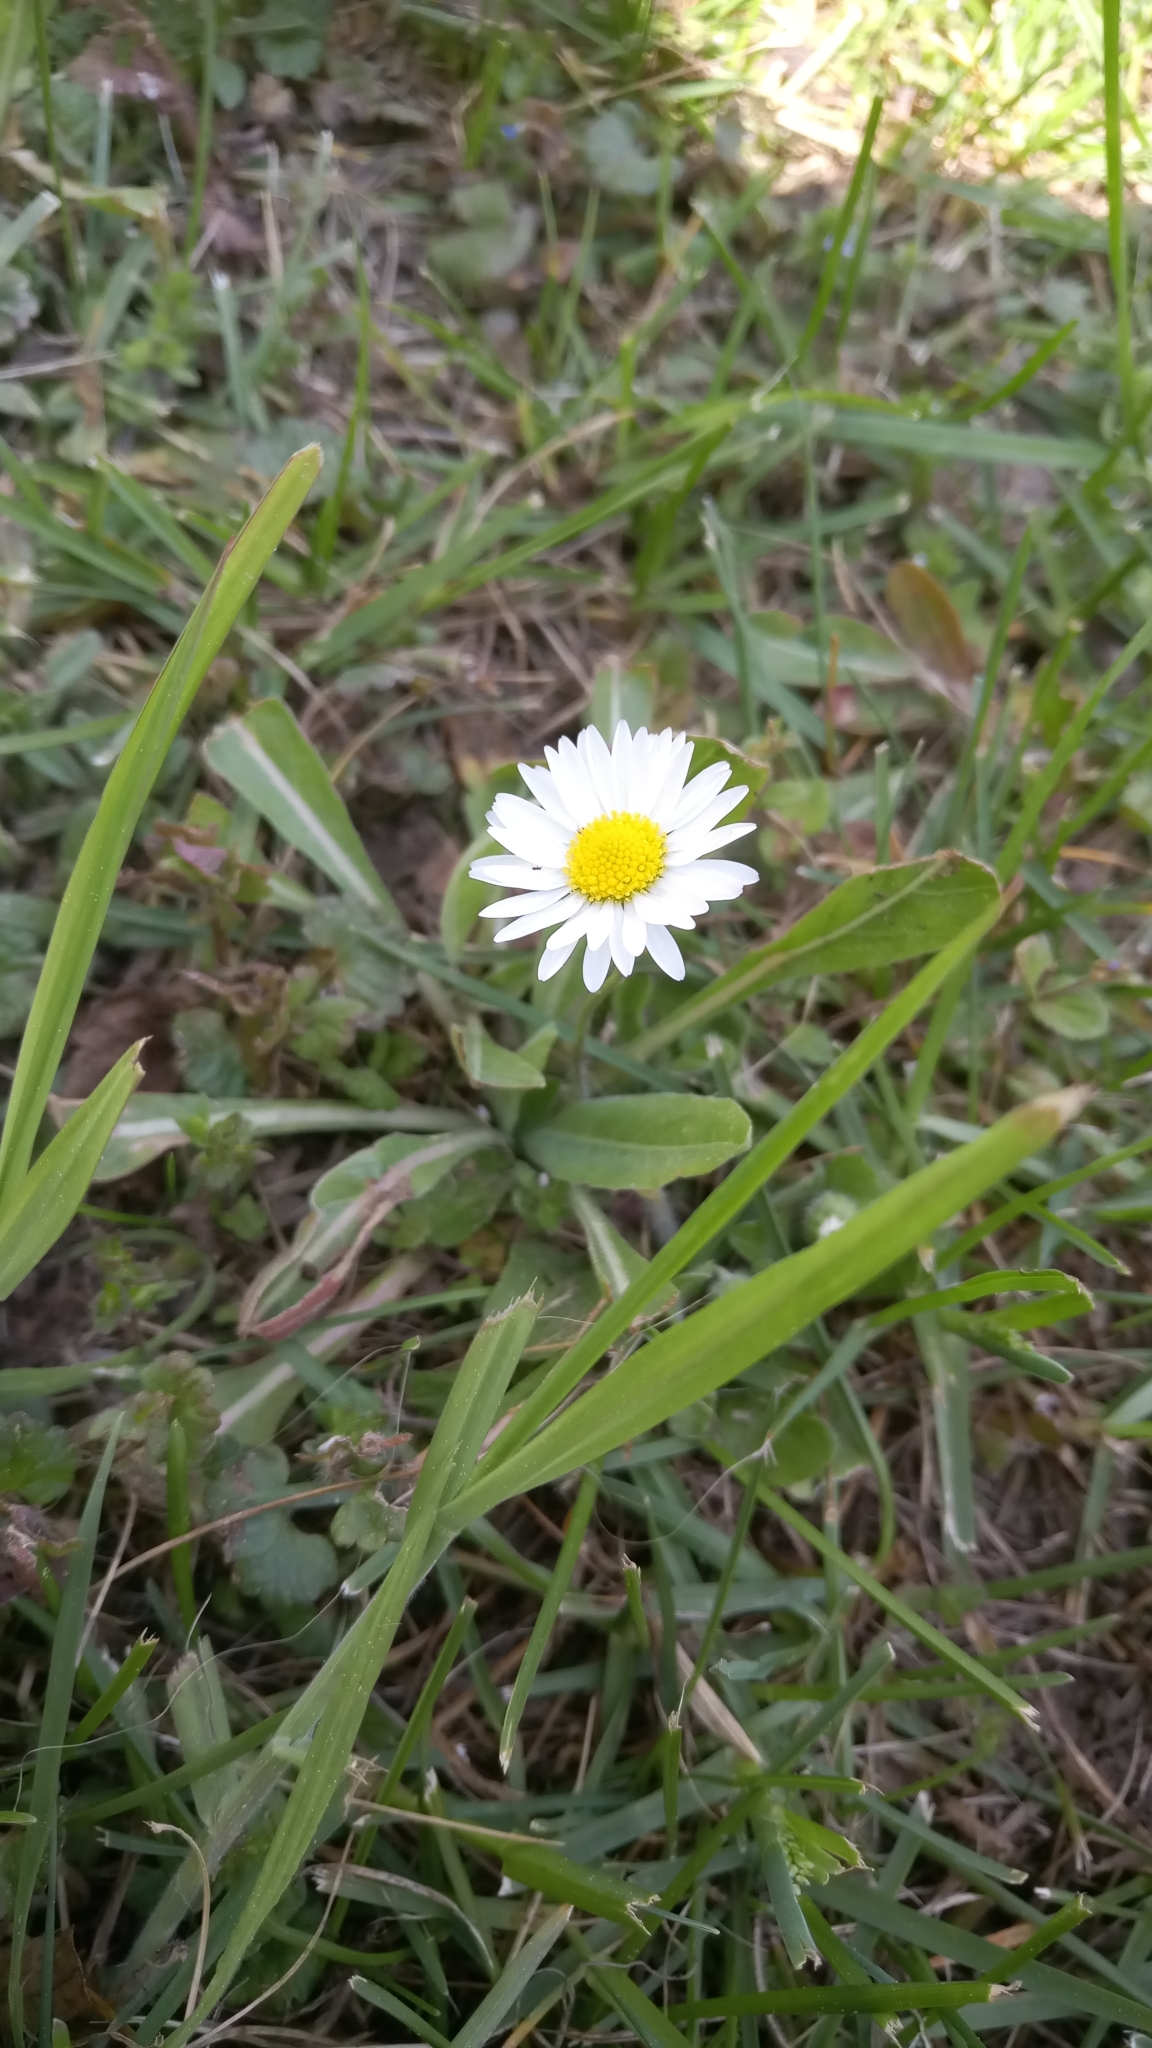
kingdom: Plantae
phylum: Tracheophyta
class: Magnoliopsida
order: Asterales
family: Asteraceae
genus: Bellis
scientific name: Bellis perennis
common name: Lawndaisy
